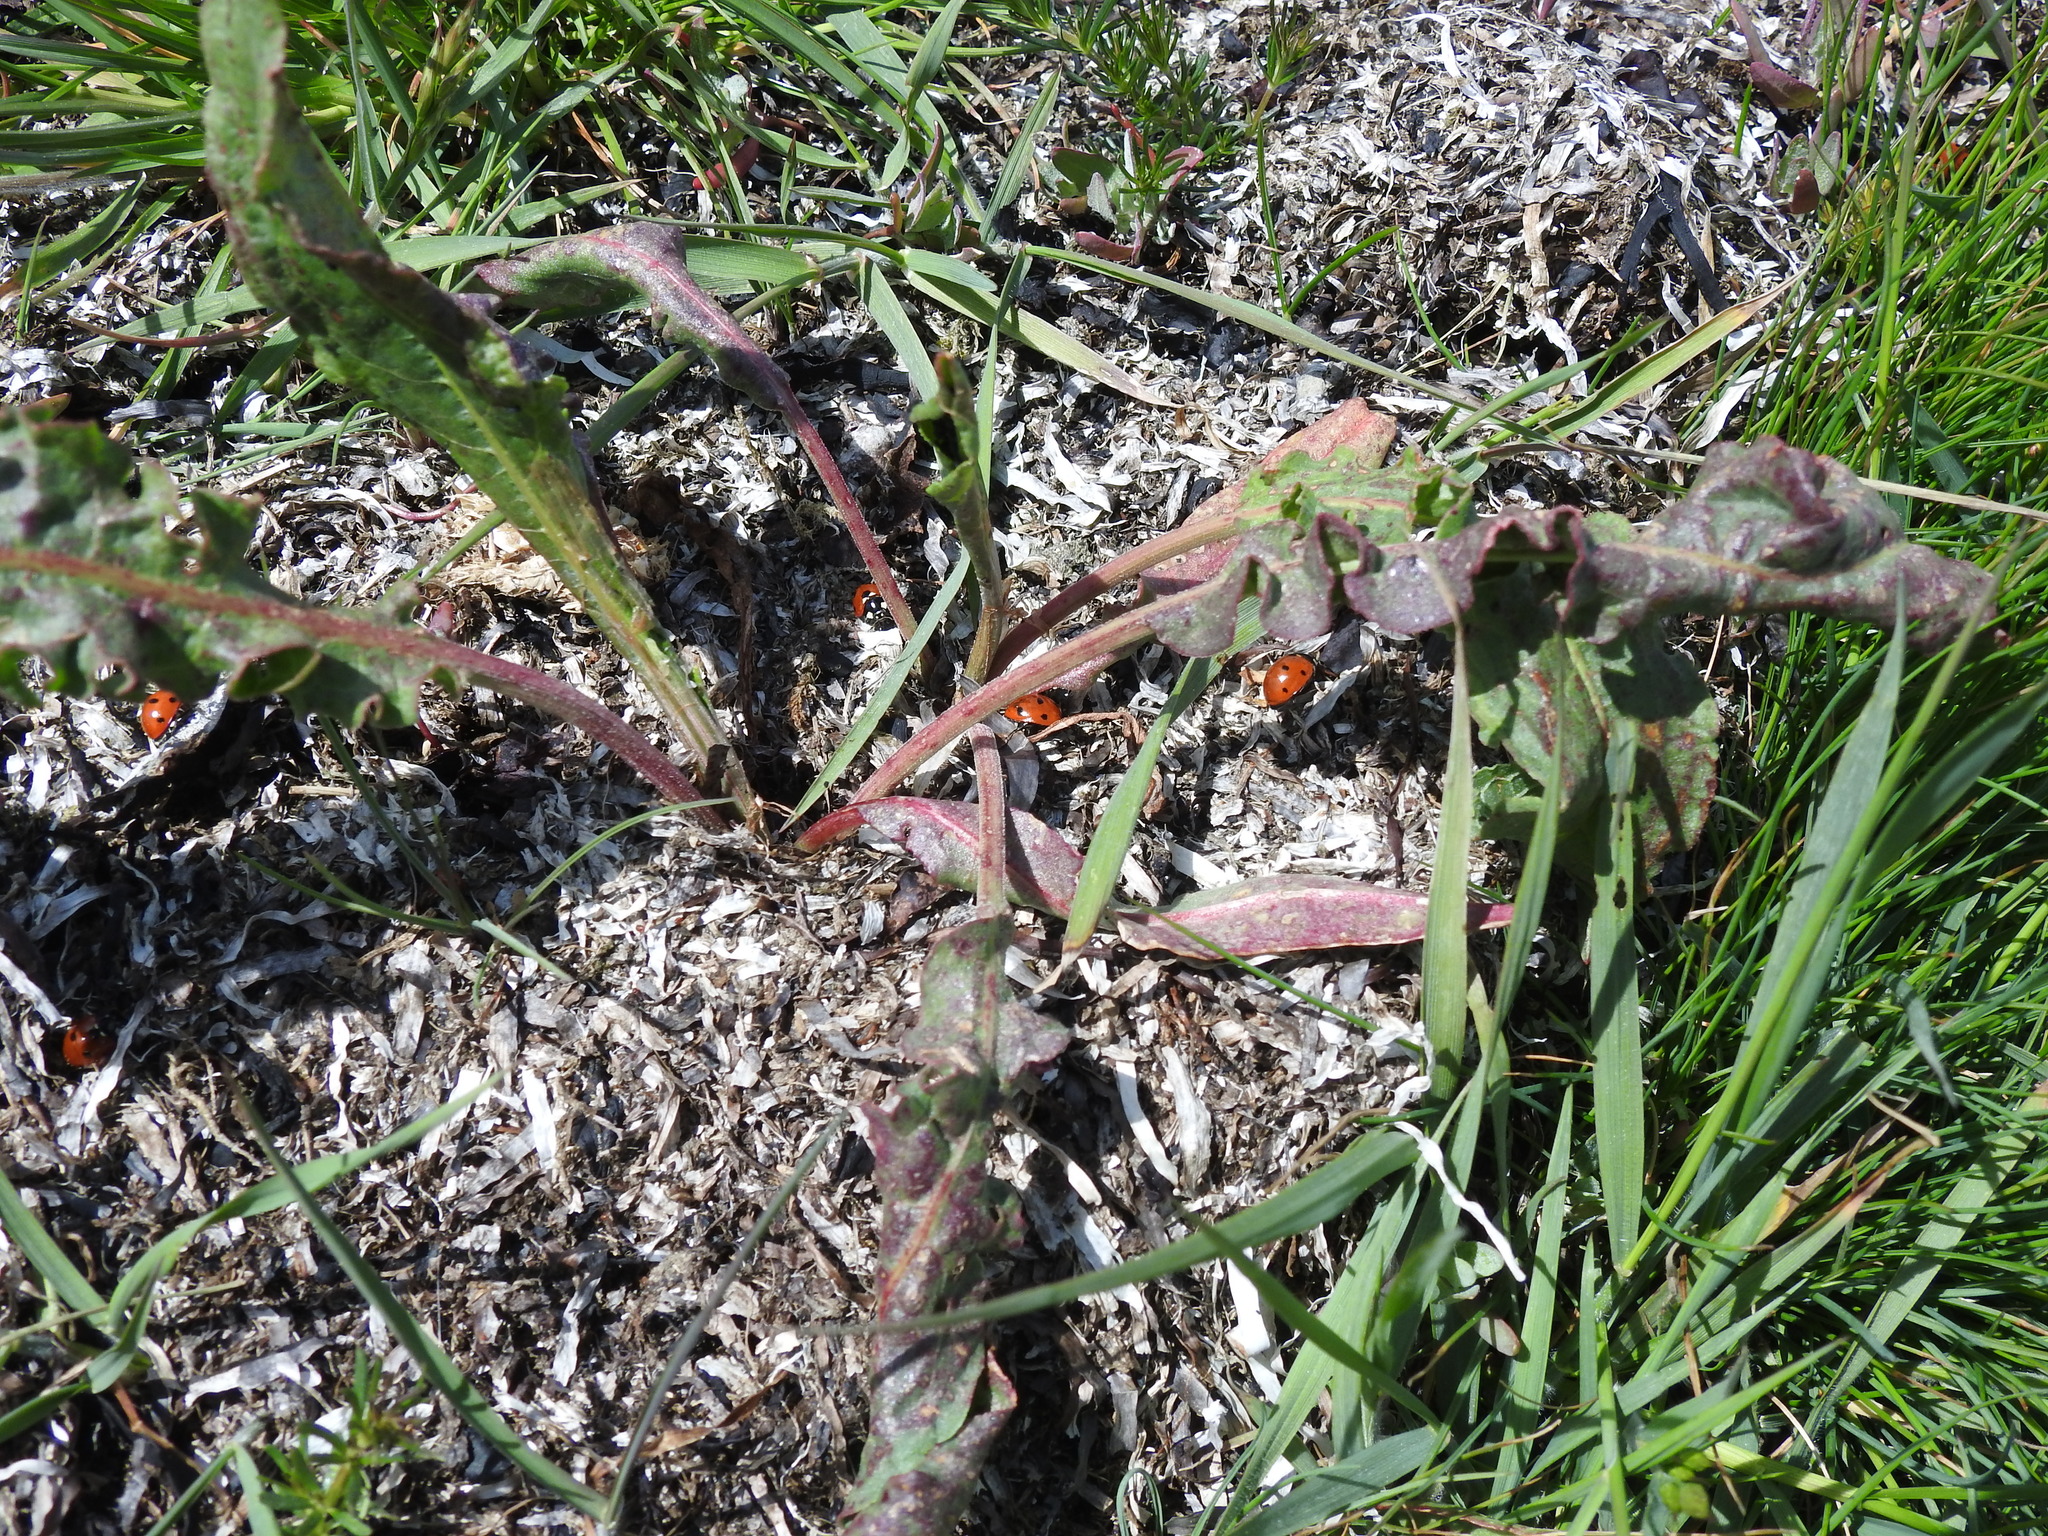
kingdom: Animalia
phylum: Arthropoda
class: Insecta
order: Coleoptera
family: Coccinellidae
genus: Coccinella
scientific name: Coccinella septempunctata
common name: Sevenspotted lady beetle
